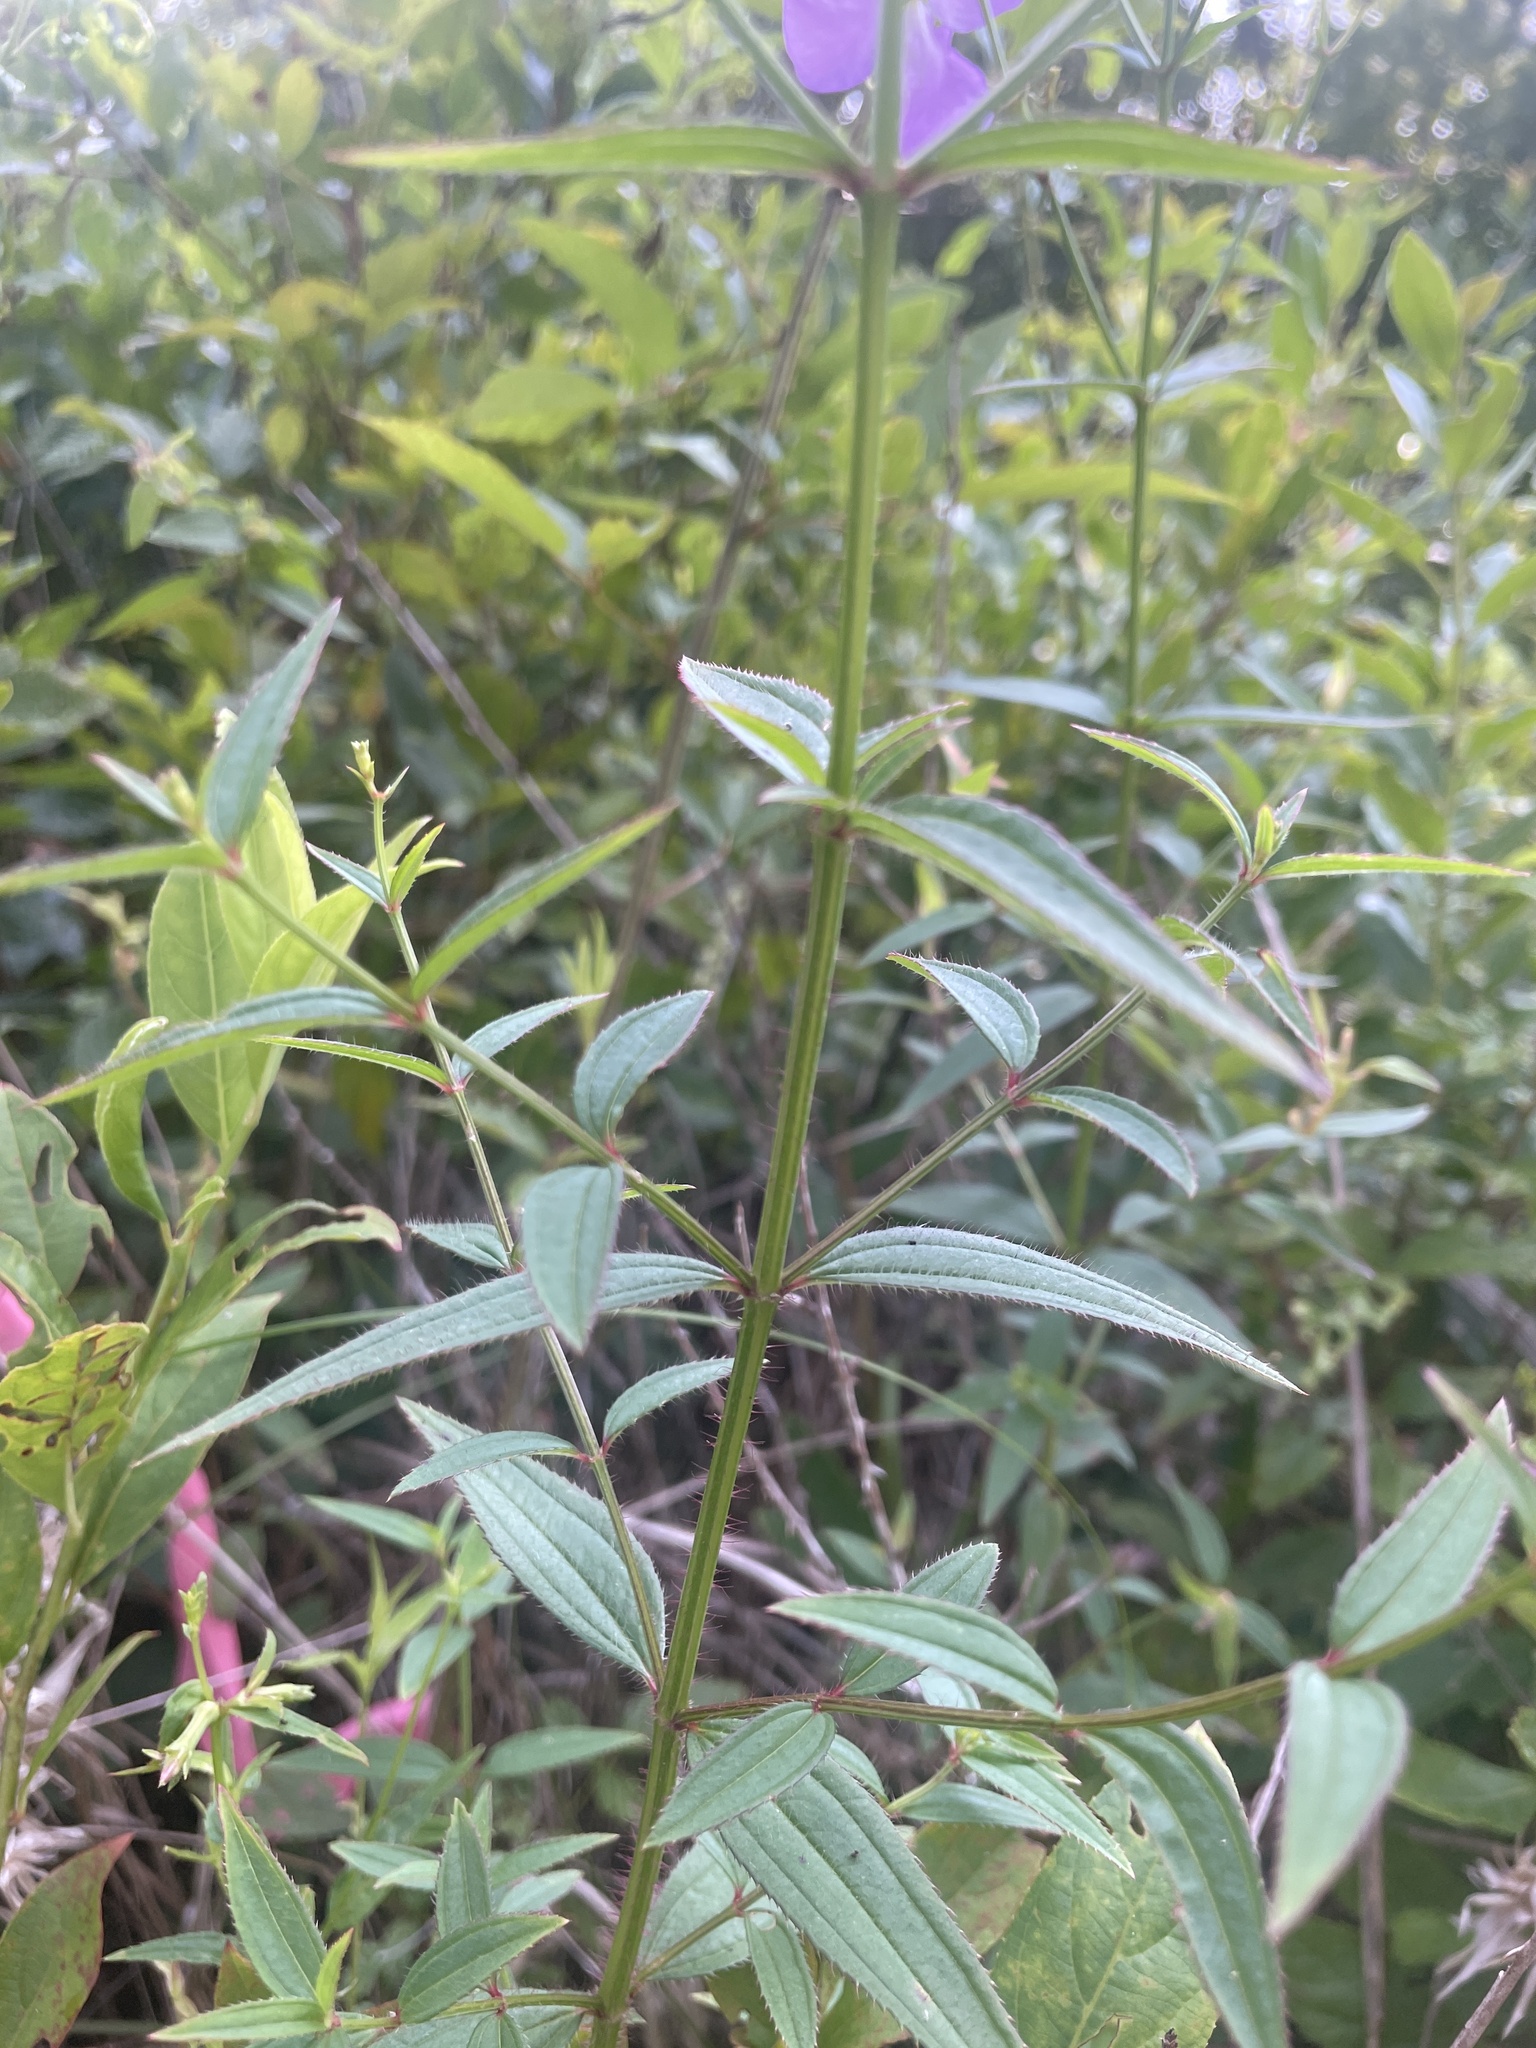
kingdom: Plantae
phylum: Tracheophyta
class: Magnoliopsida
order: Myrtales
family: Melastomataceae
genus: Rhexia
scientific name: Rhexia nashii
